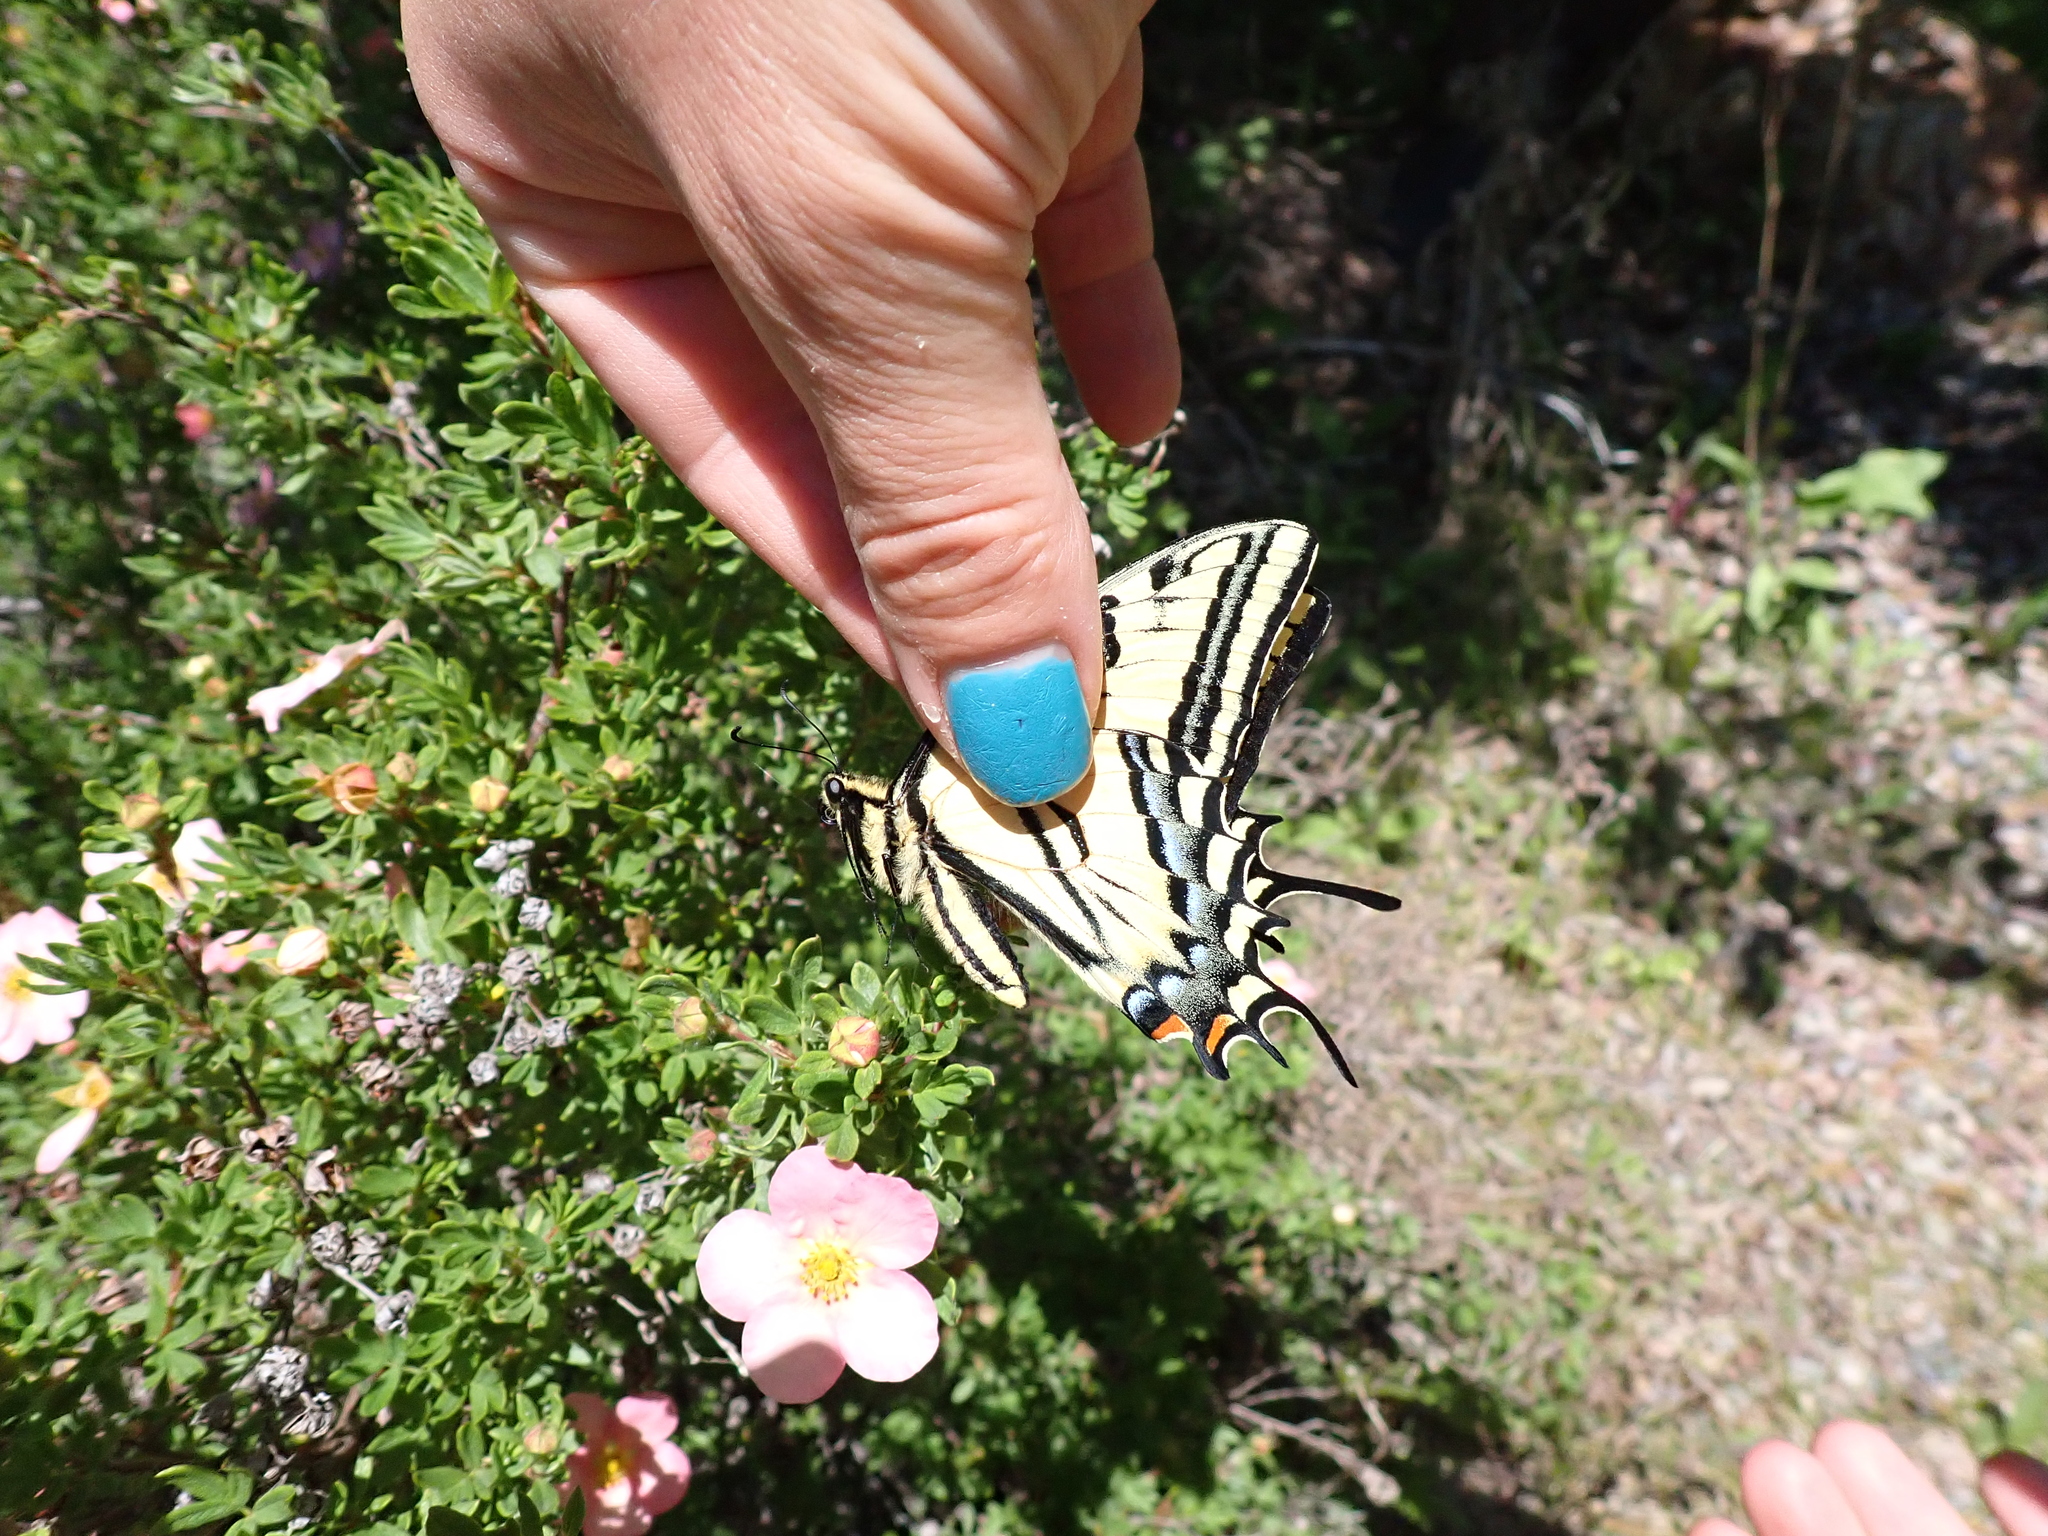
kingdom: Animalia
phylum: Arthropoda
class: Insecta
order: Lepidoptera
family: Papilionidae
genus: Papilio
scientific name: Papilio multicaudata
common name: Two-tailed tiger swallowtail
